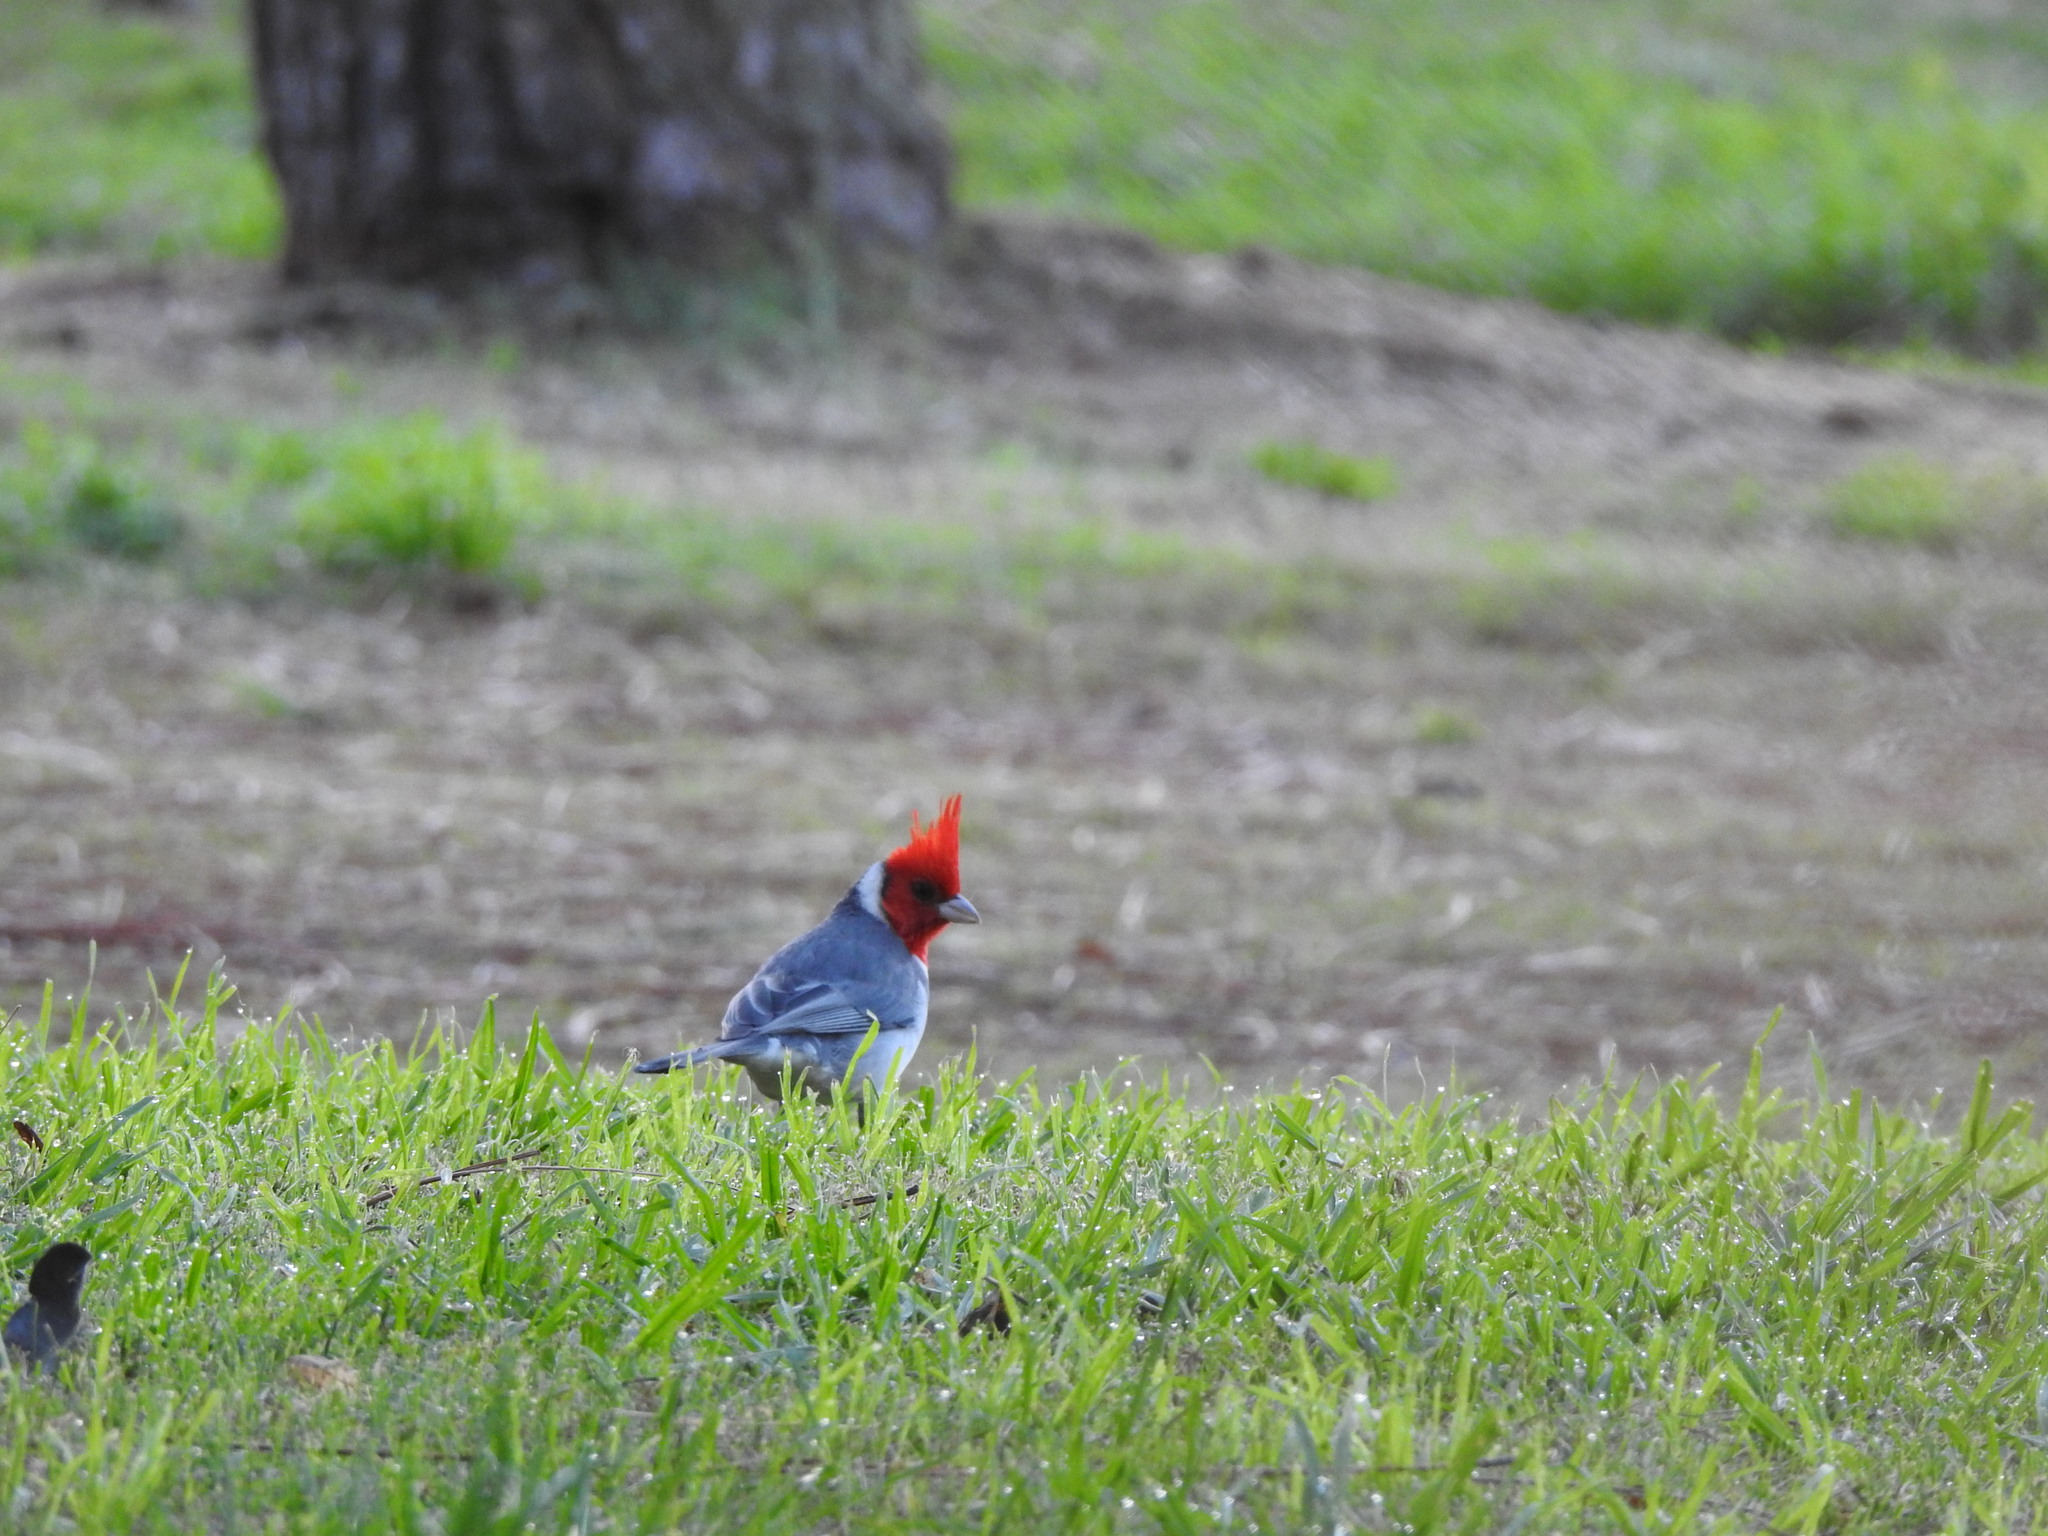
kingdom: Animalia
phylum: Chordata
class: Aves
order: Passeriformes
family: Thraupidae
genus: Paroaria
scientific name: Paroaria coronata
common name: Red-crested cardinal
